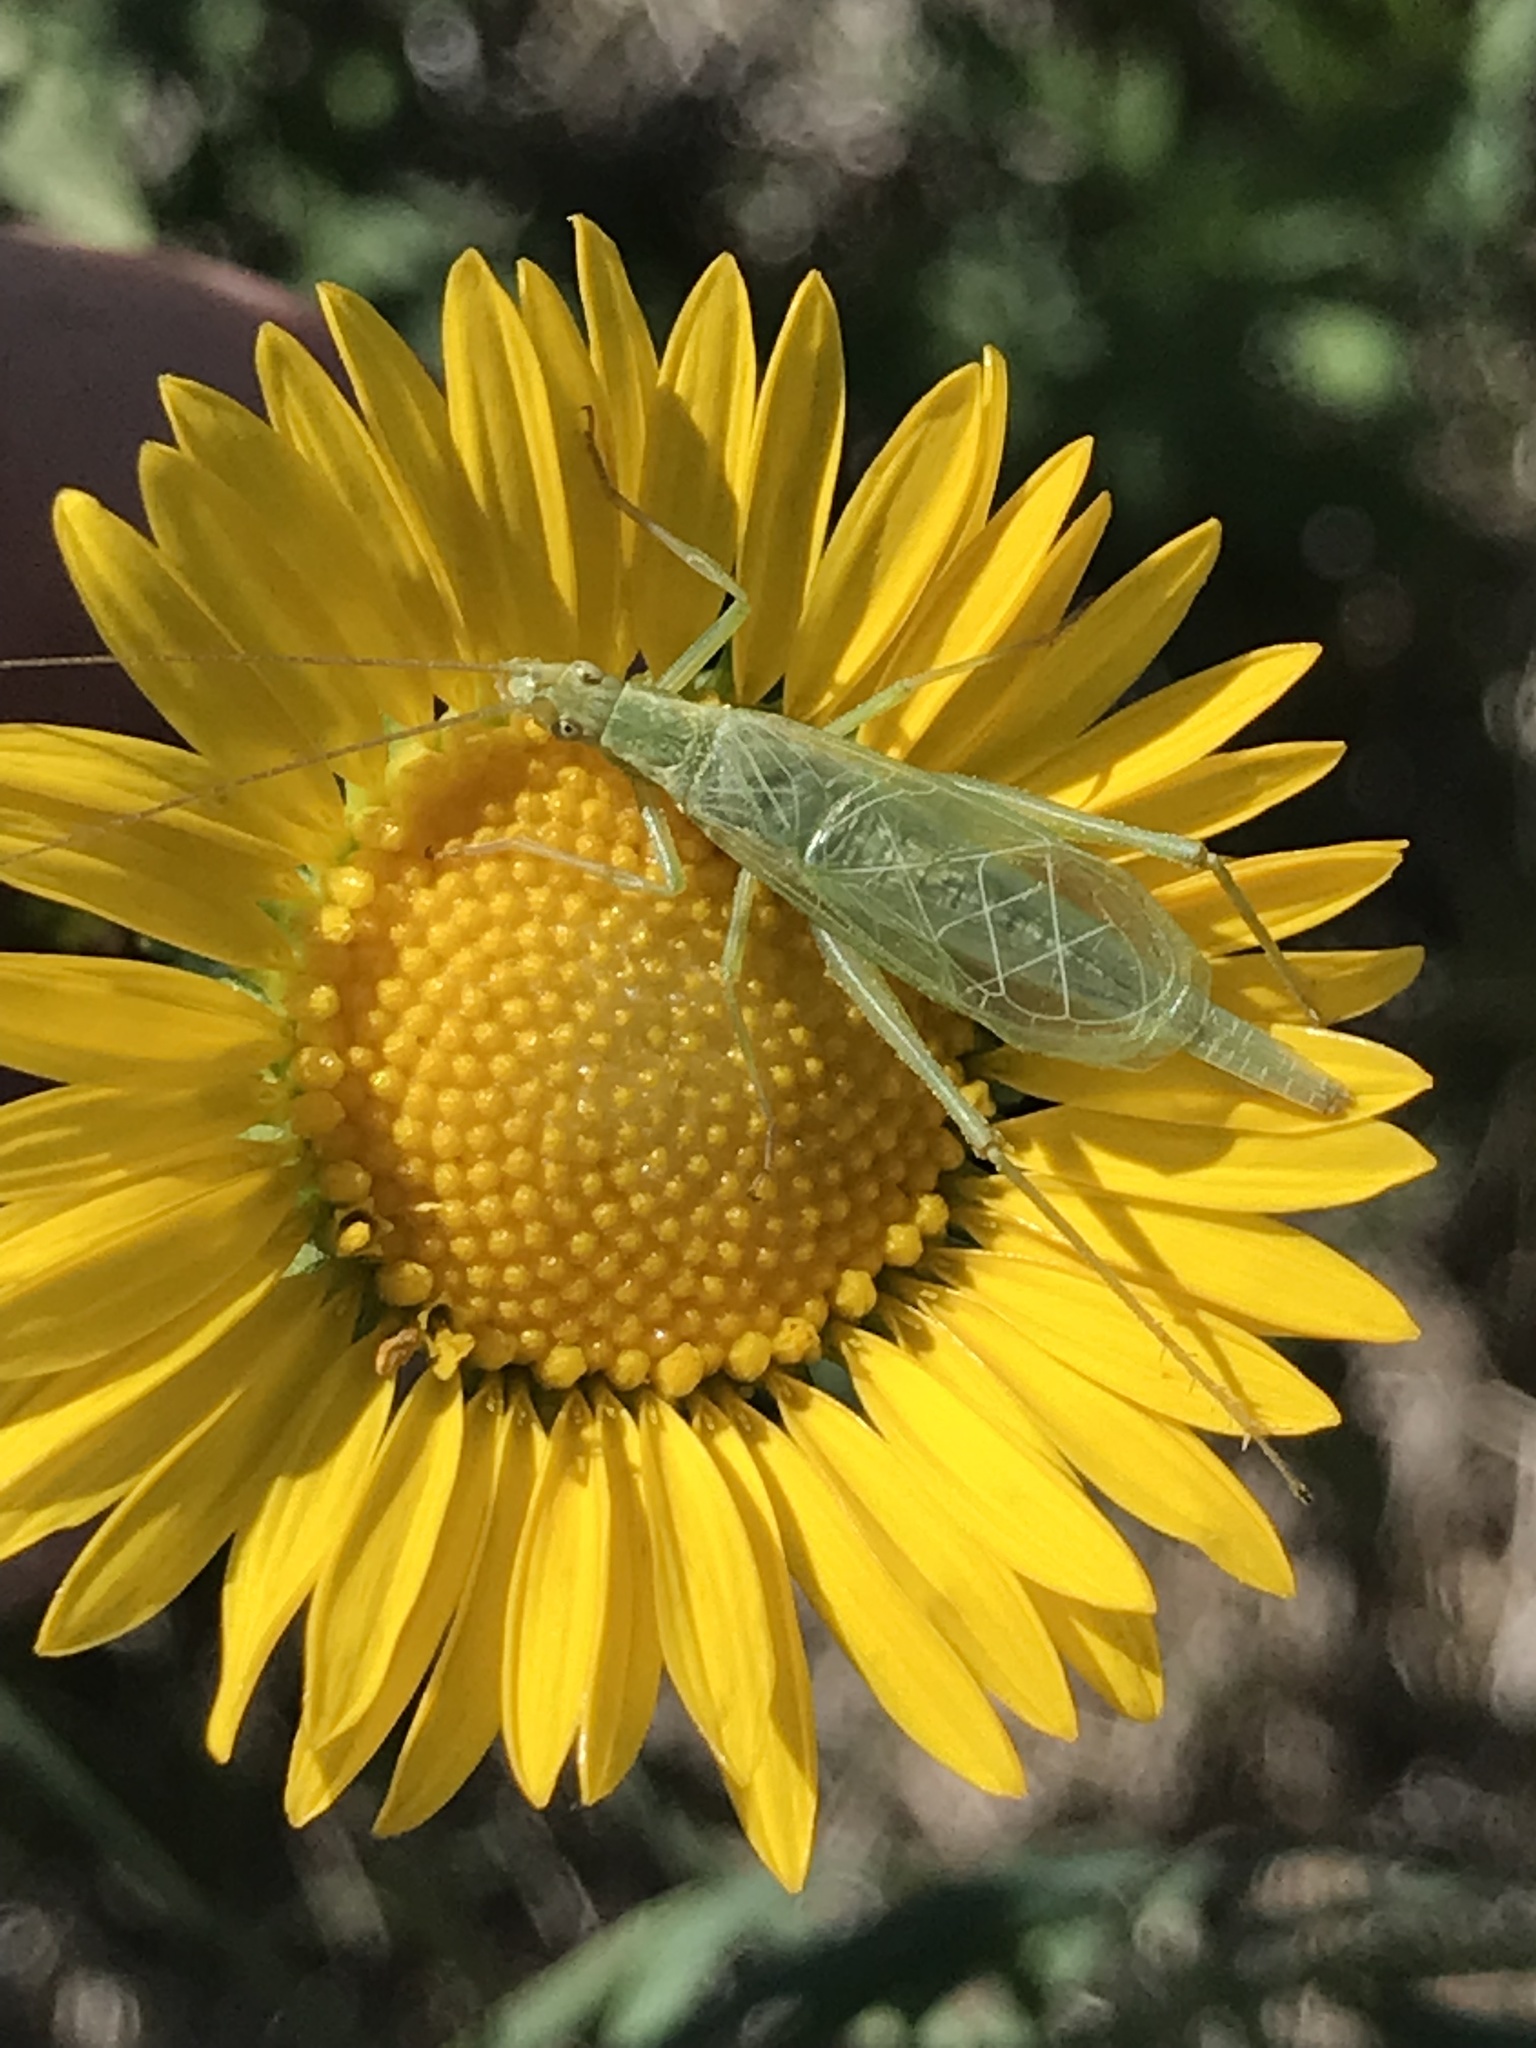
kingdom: Animalia
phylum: Arthropoda
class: Insecta
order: Orthoptera
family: Gryllidae
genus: Oecanthus
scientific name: Oecanthus quadripunctatus
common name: Four-spotted tree cricket
